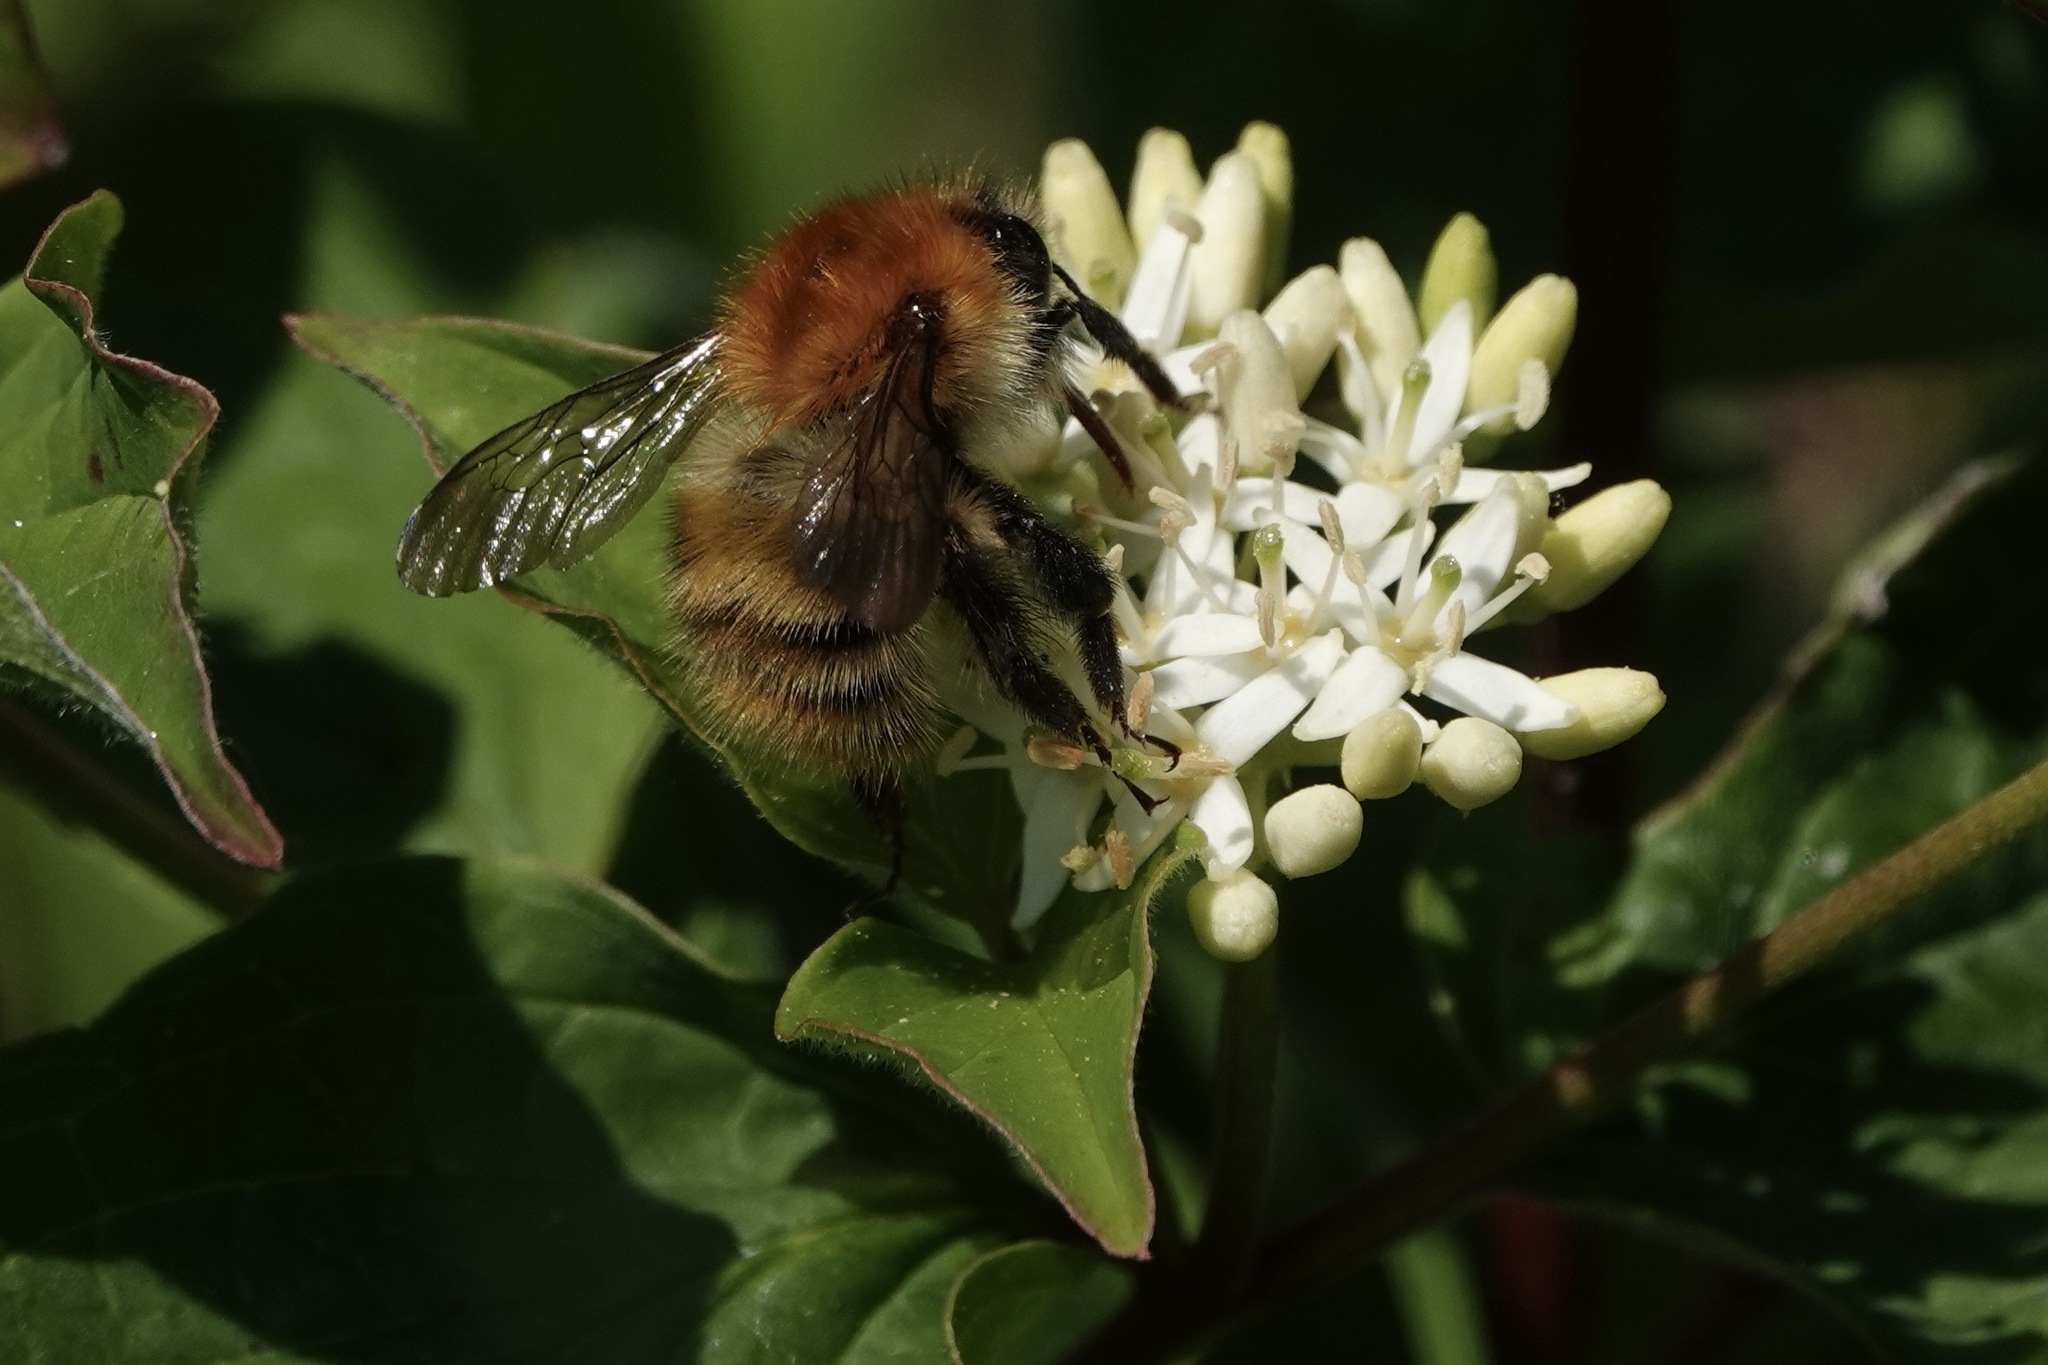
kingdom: Animalia
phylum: Arthropoda
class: Insecta
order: Hymenoptera
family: Apidae
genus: Bombus
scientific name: Bombus humilis
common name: Brown-banded carder-bee
